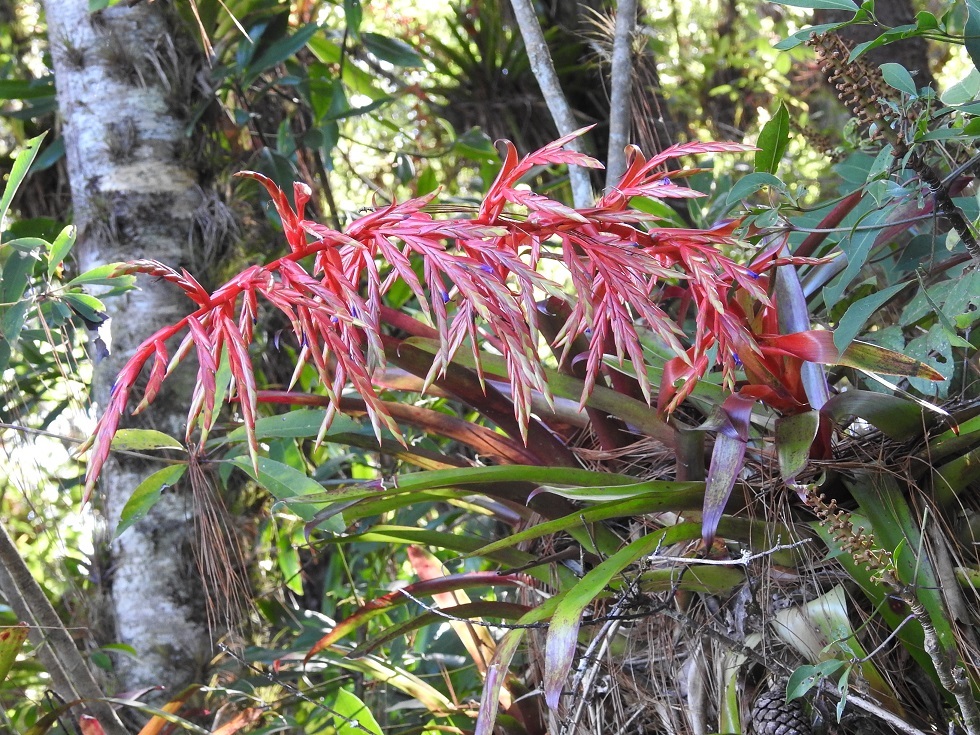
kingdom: Plantae
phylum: Tracheophyta
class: Liliopsida
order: Poales
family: Bromeliaceae
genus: Tillandsia
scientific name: Tillandsia guatemalensis
